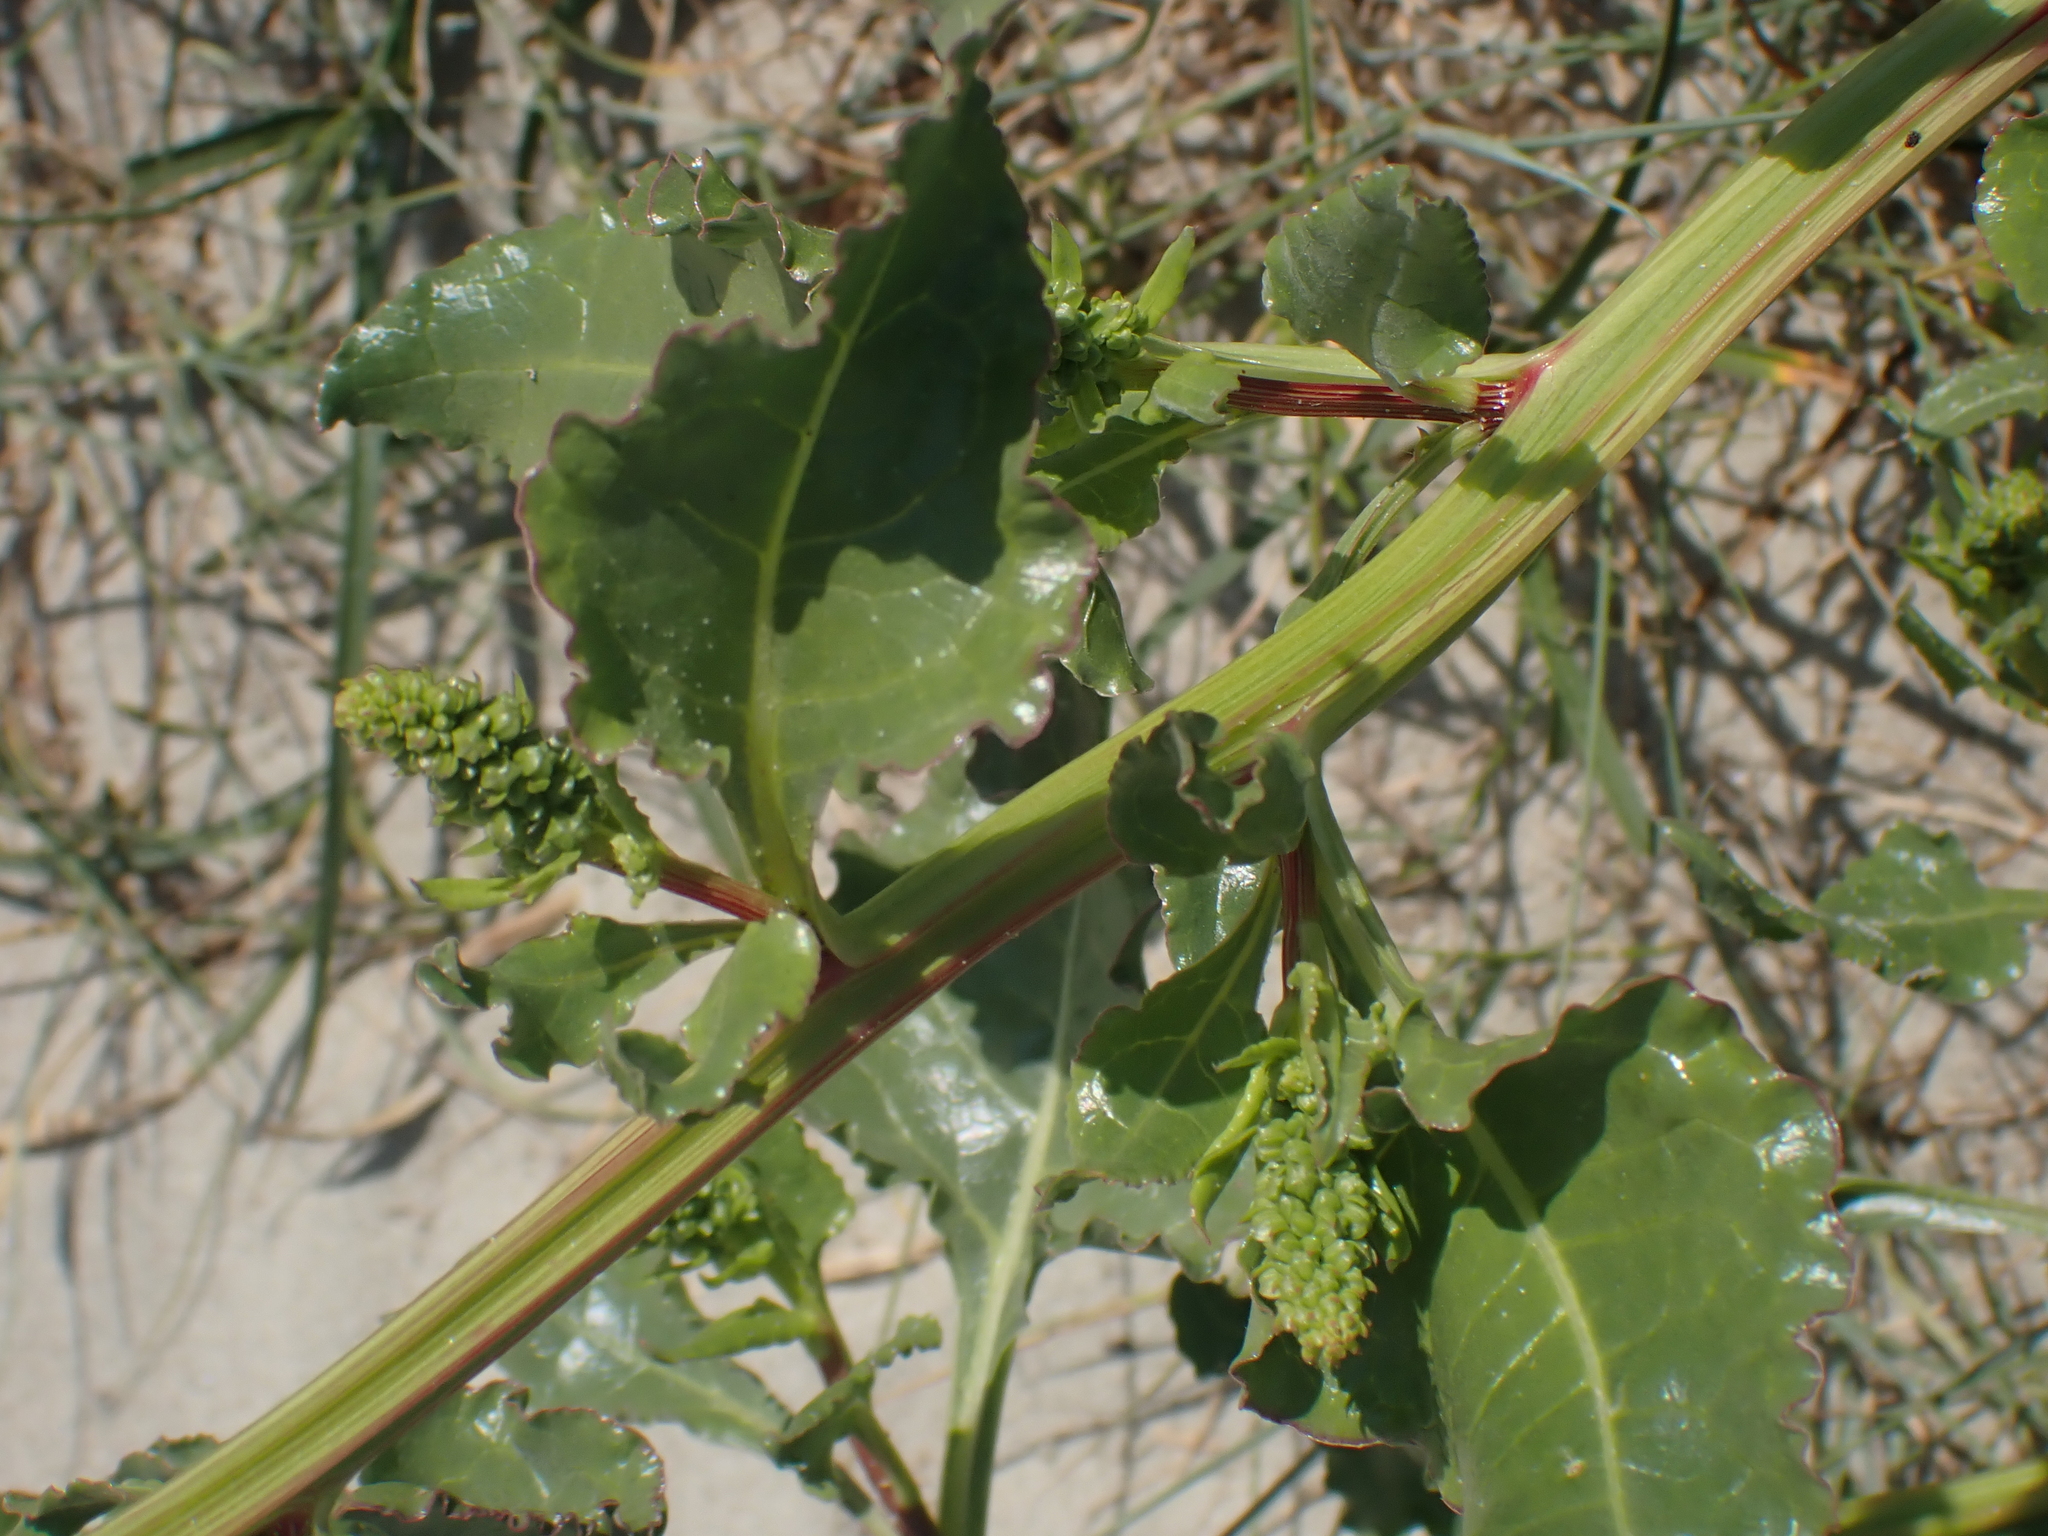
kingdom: Plantae
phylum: Tracheophyta
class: Magnoliopsida
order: Caryophyllales
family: Amaranthaceae
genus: Beta
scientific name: Beta vulgaris
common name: Beet
